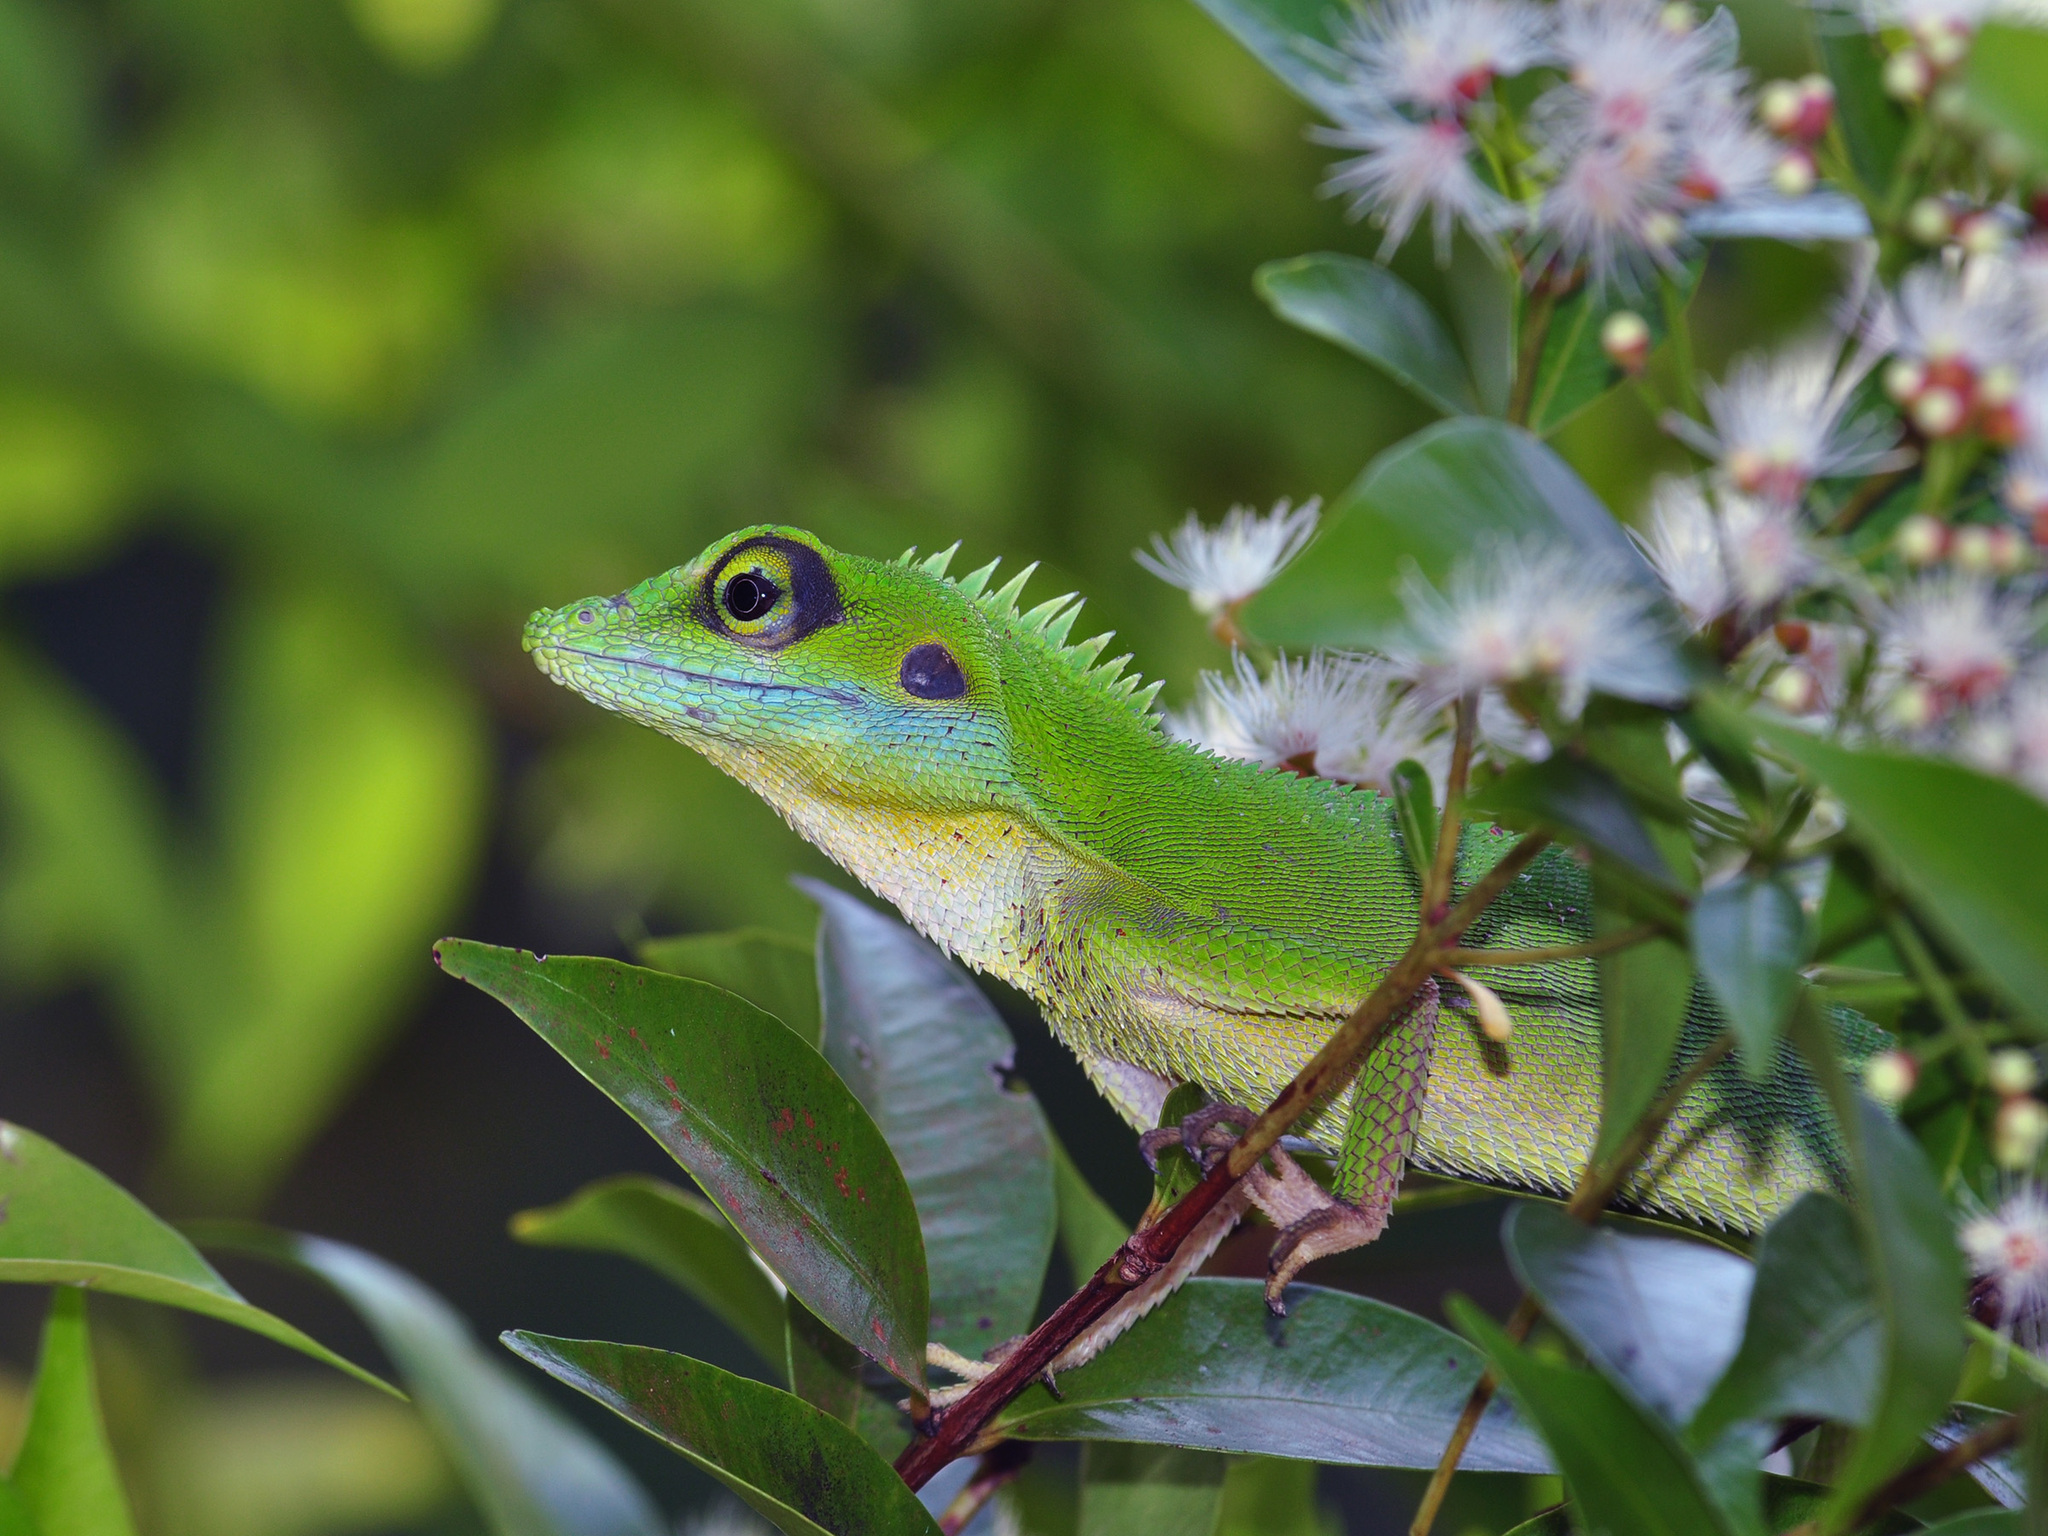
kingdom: Animalia
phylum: Chordata
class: Squamata
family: Agamidae
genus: Bronchocela
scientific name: Bronchocela cristatella
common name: Green crested lizard
